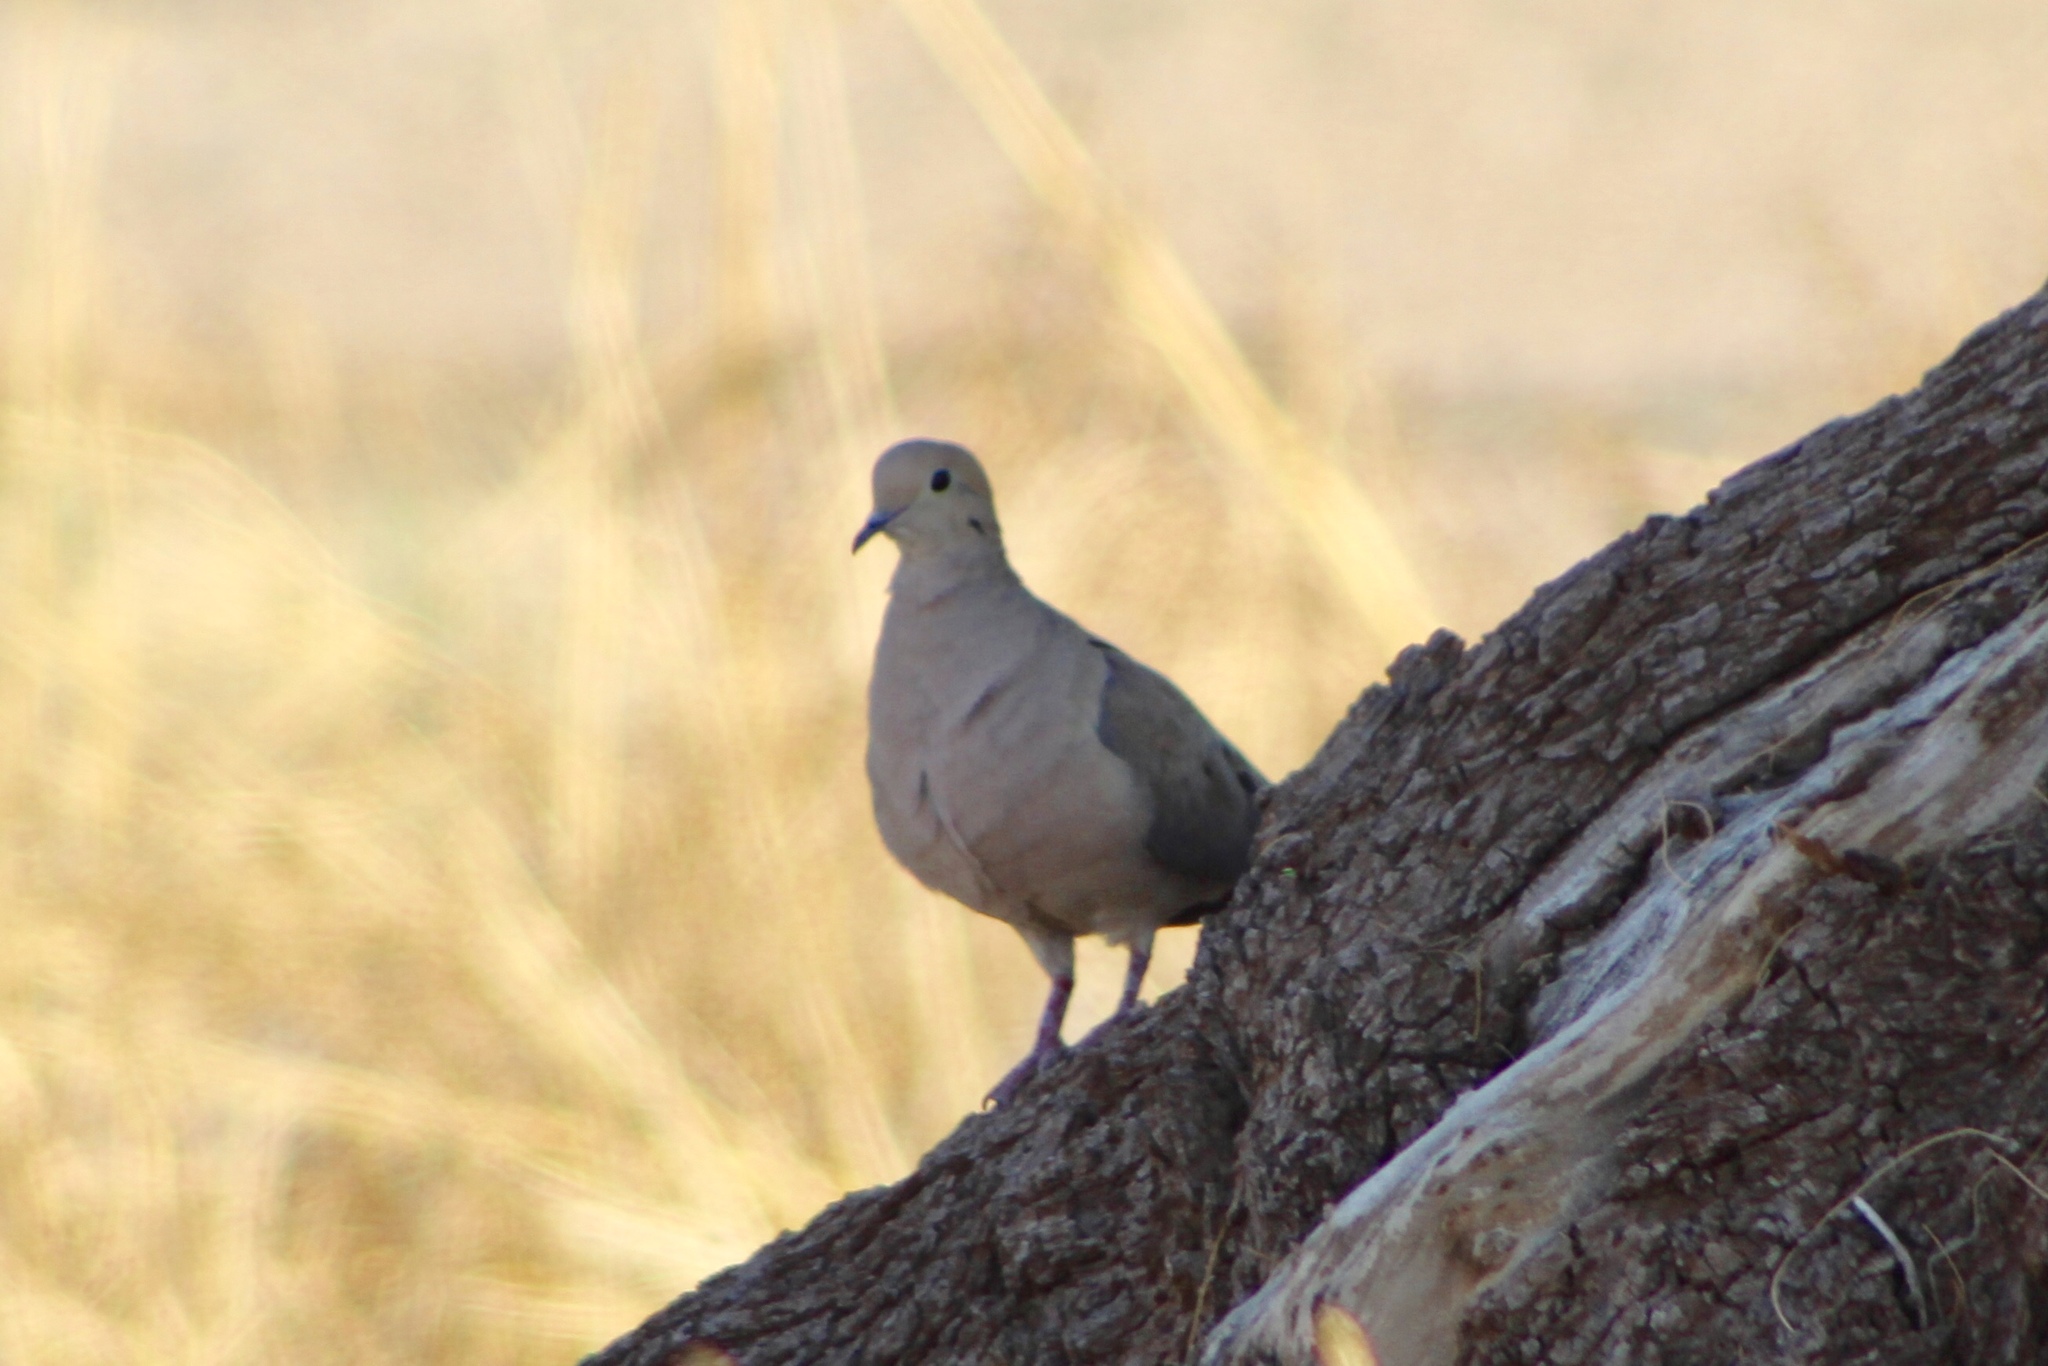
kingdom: Animalia
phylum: Chordata
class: Aves
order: Columbiformes
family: Columbidae
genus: Zenaida
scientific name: Zenaida macroura
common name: Mourning dove
